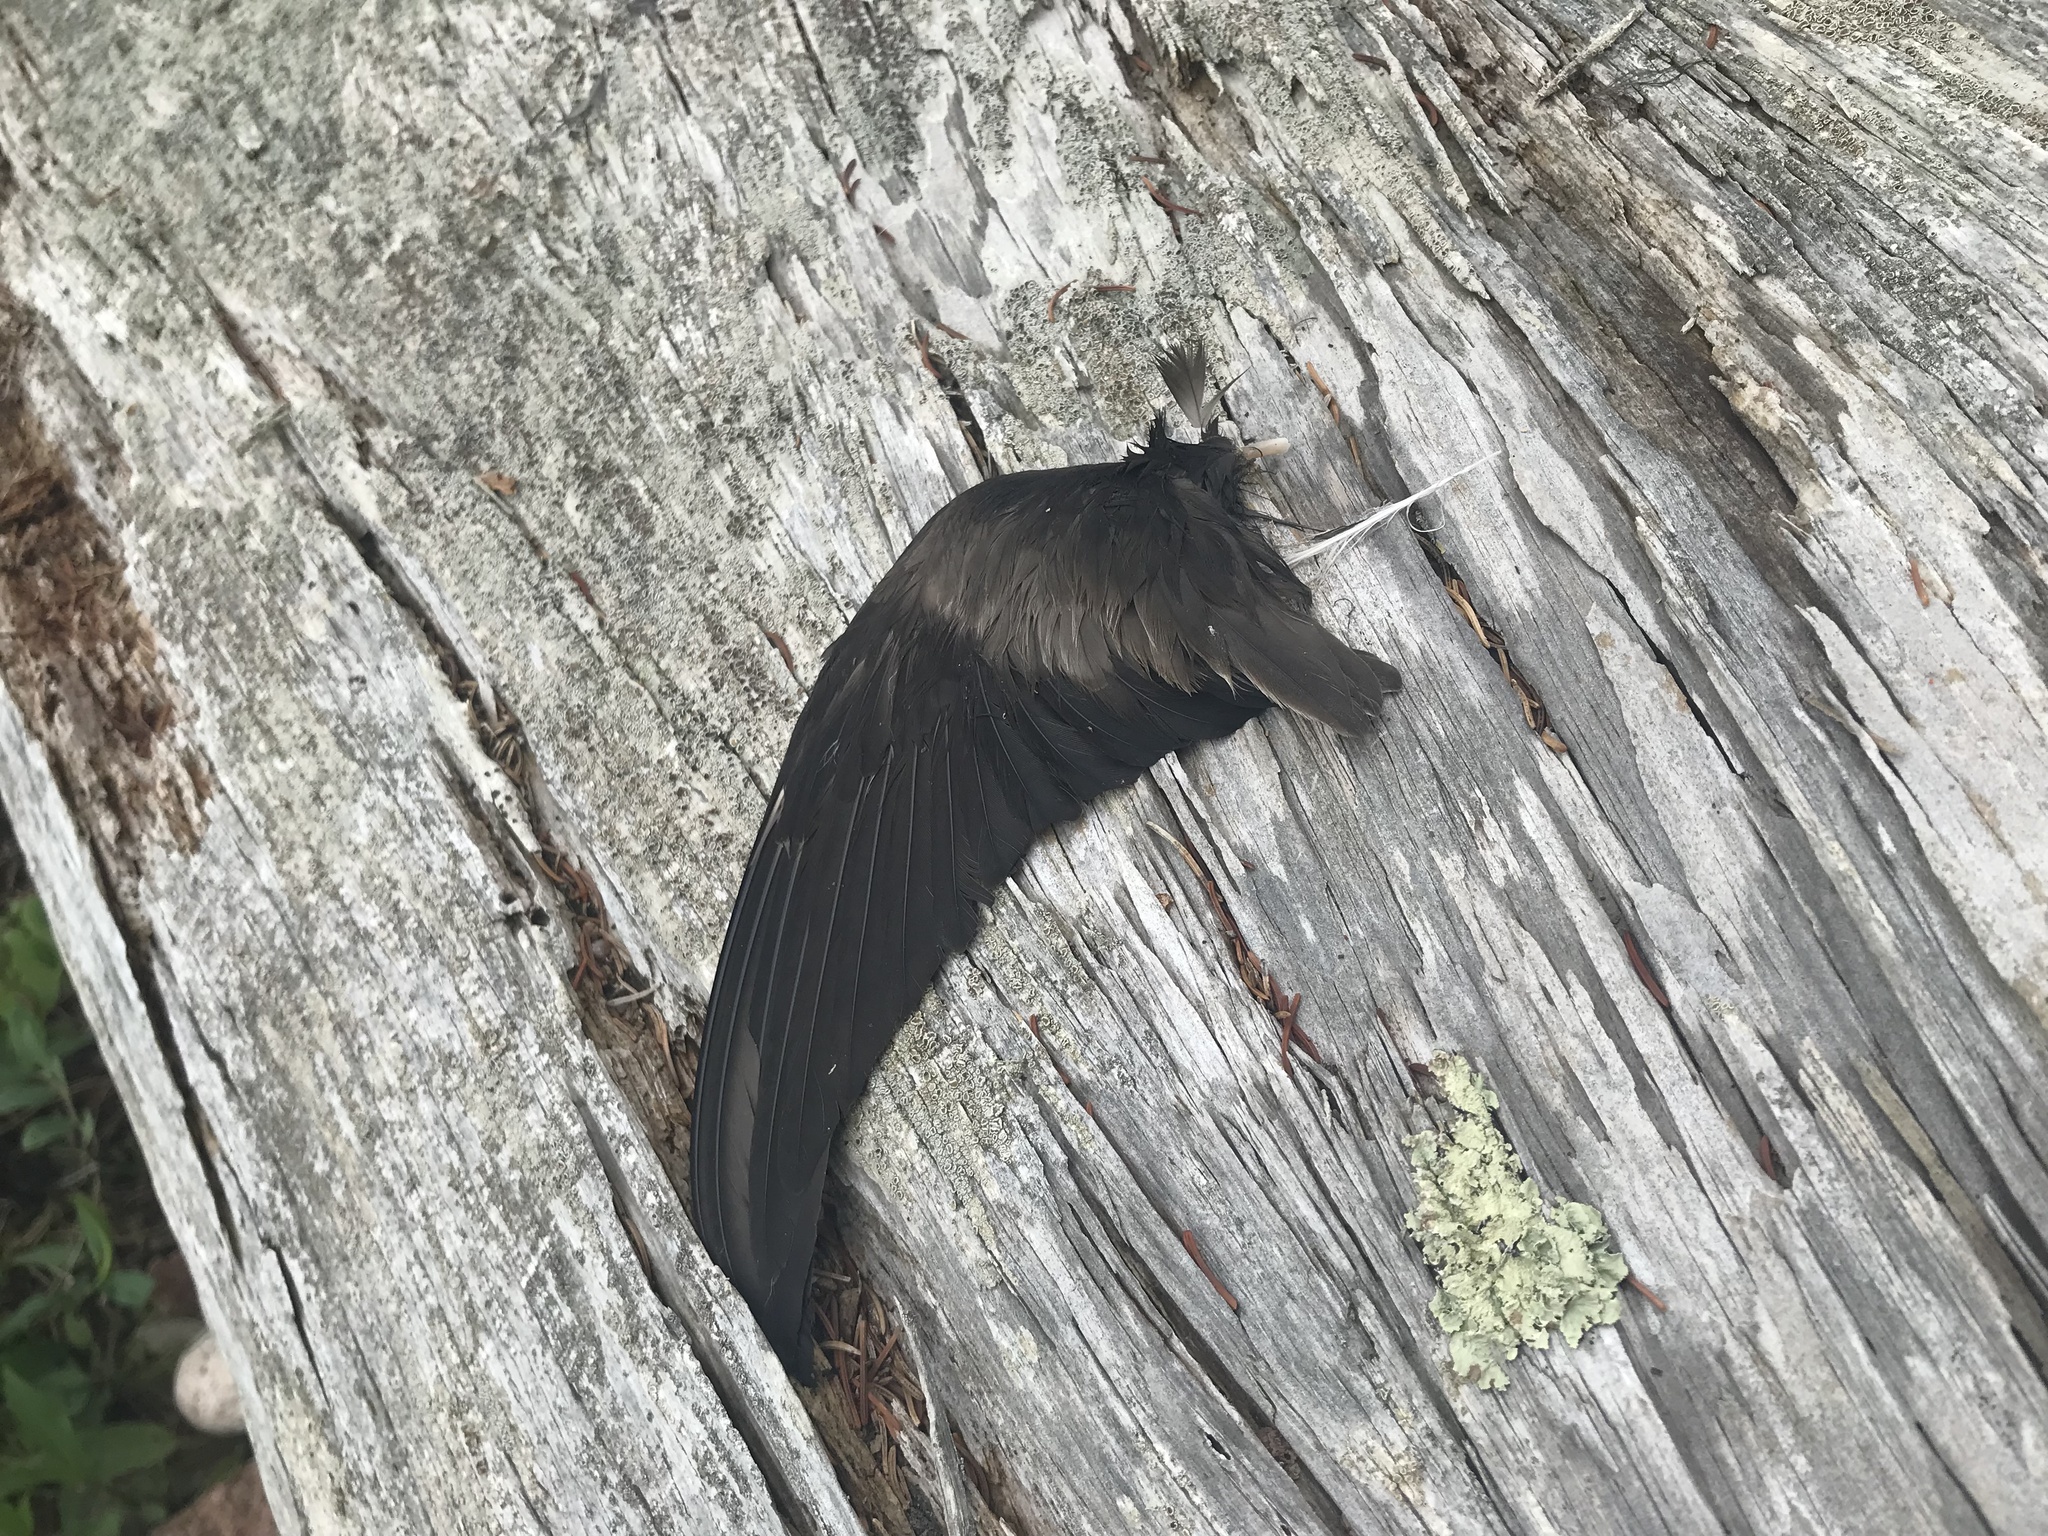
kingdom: Animalia
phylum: Chordata
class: Aves
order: Procellariiformes
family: Hydrobatidae
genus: Oceanodroma
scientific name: Oceanodroma leucorhoa
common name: Leach's storm-petrel
